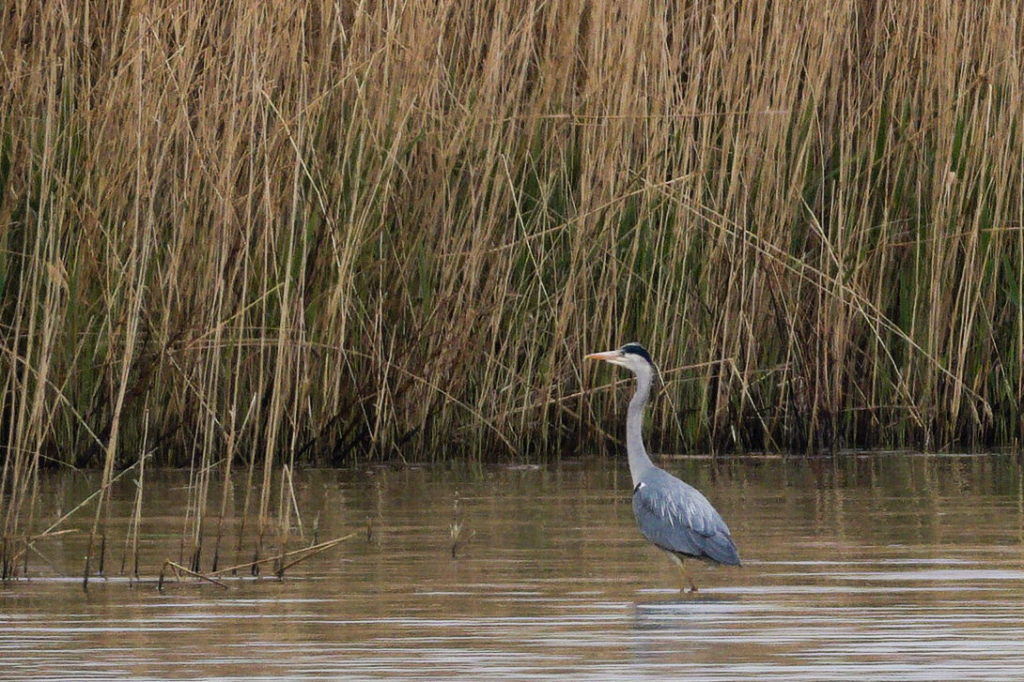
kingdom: Animalia
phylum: Chordata
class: Aves
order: Pelecaniformes
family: Ardeidae
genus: Ardea
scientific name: Ardea cinerea
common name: Grey heron
